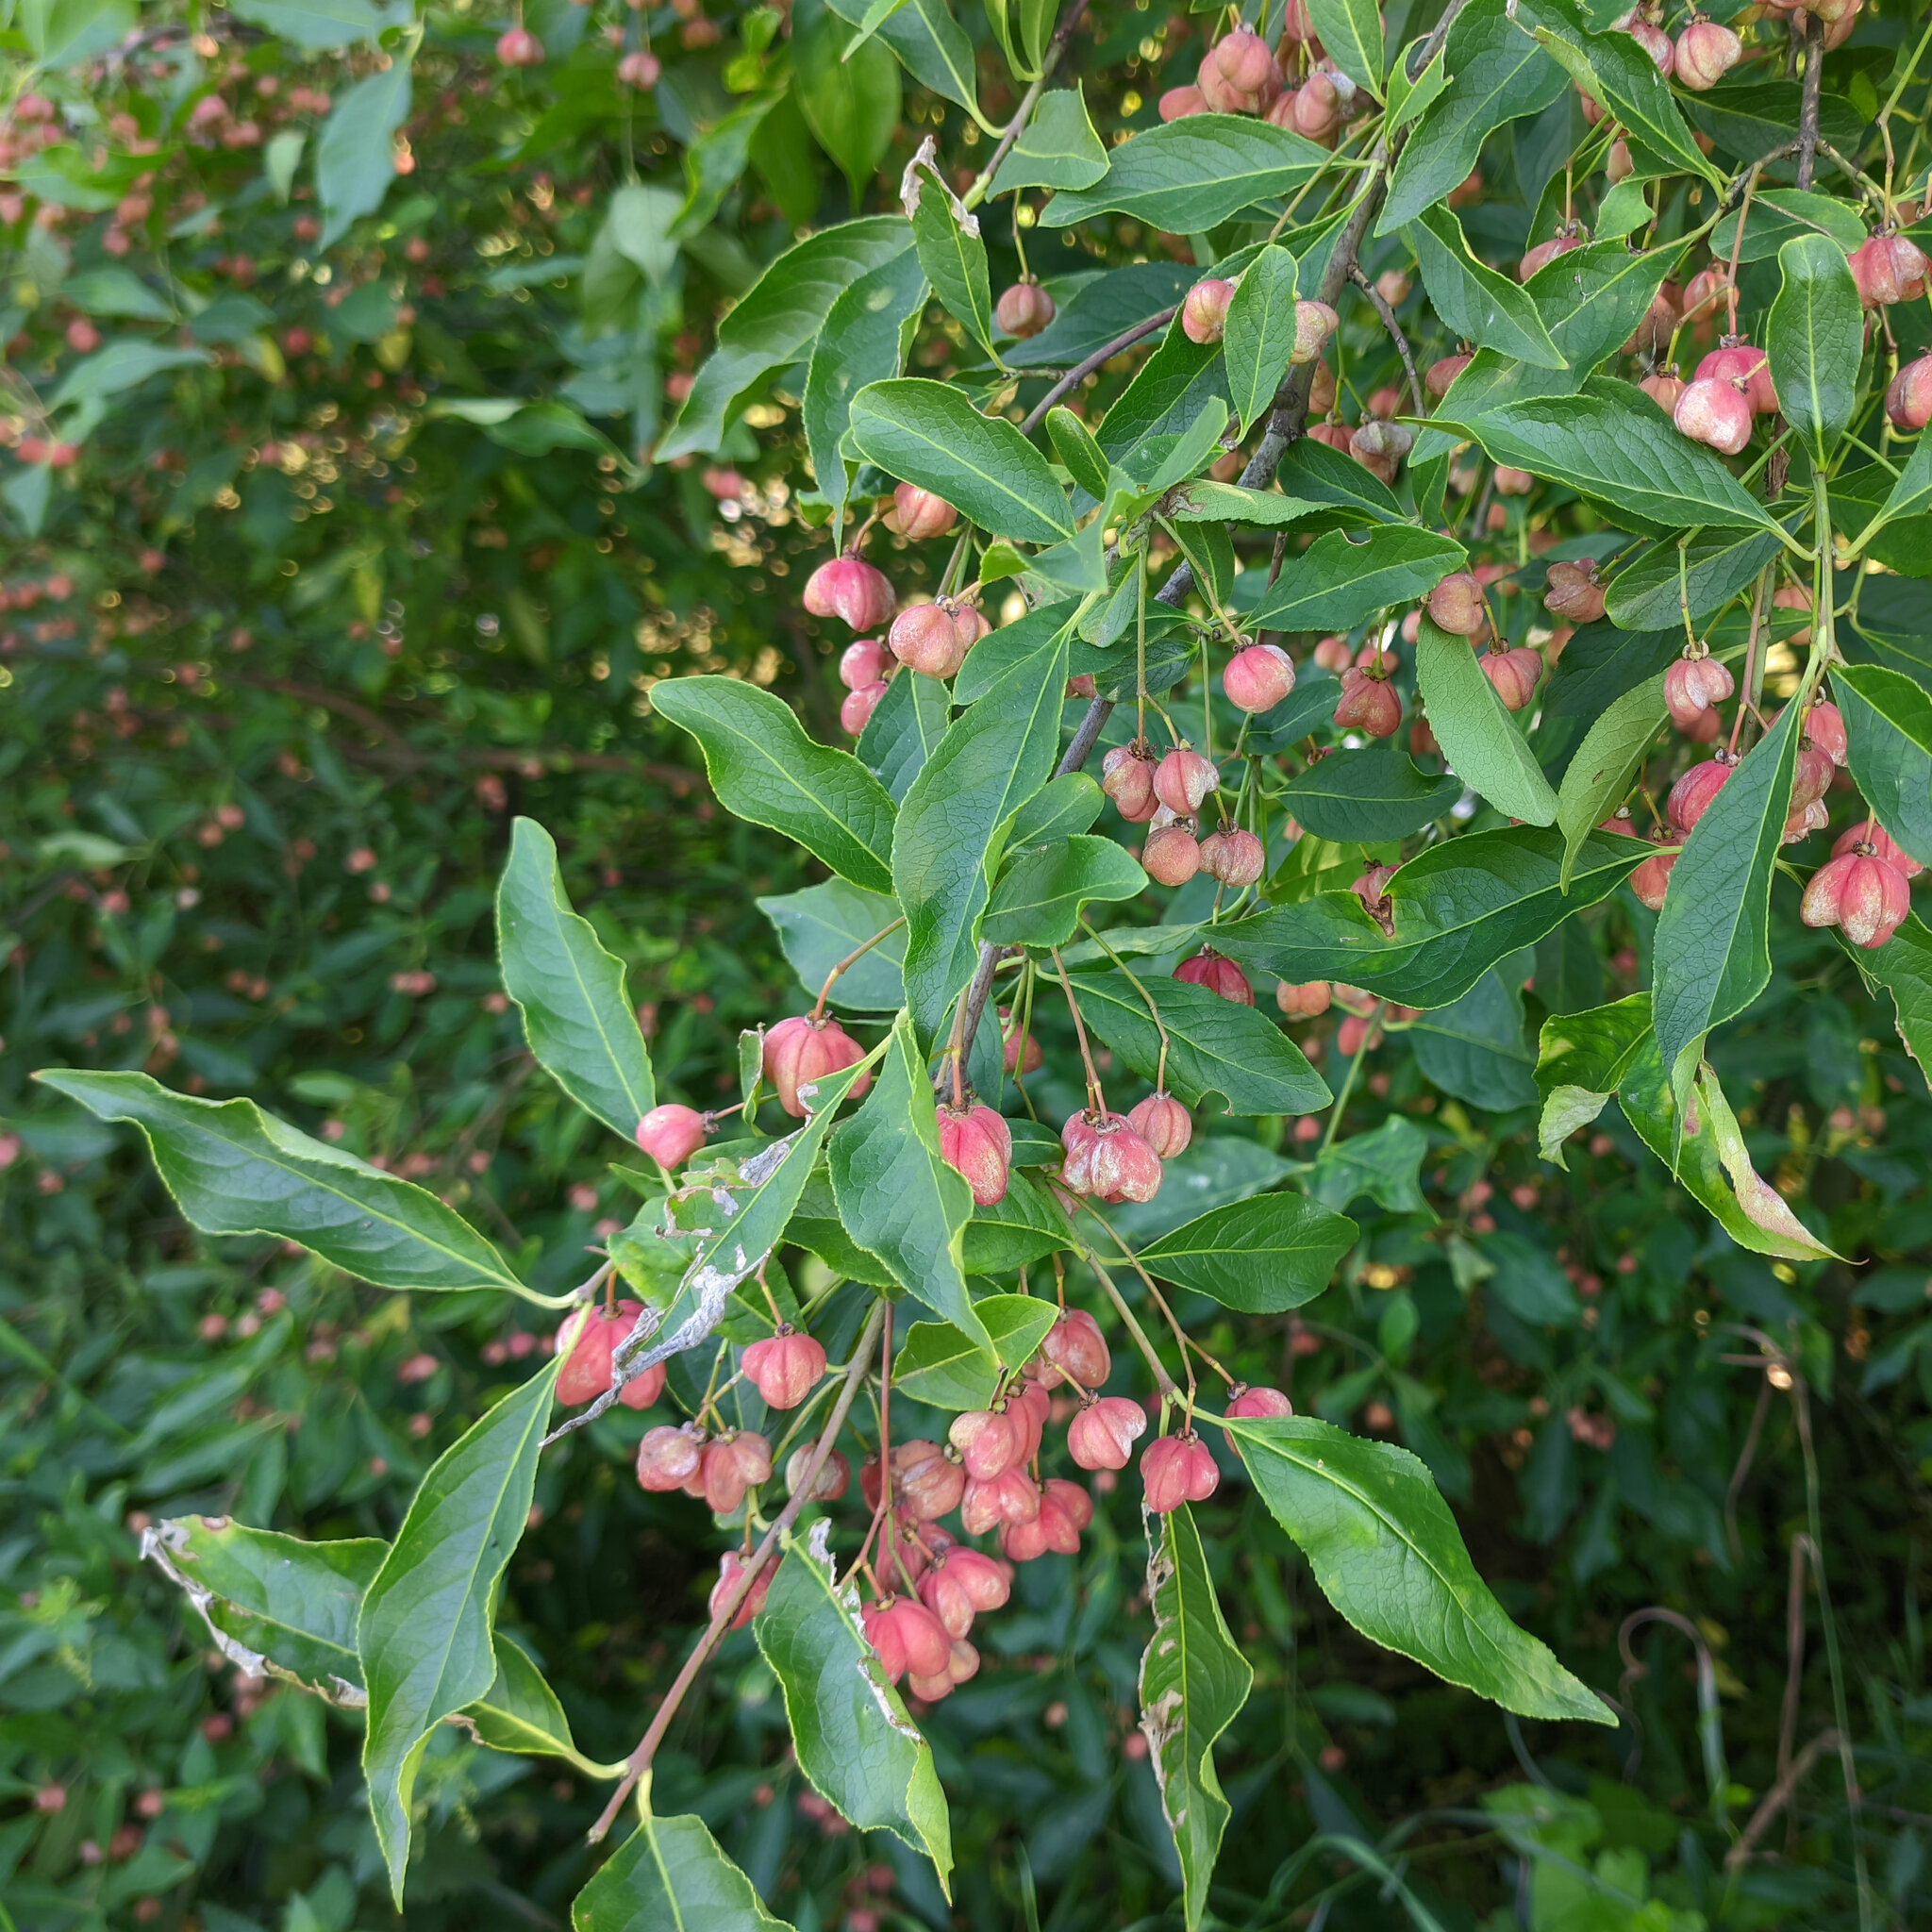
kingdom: Plantae
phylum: Tracheophyta
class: Magnoliopsida
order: Celastrales
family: Celastraceae
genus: Euonymus
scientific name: Euonymus europaeus
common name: Spindle
